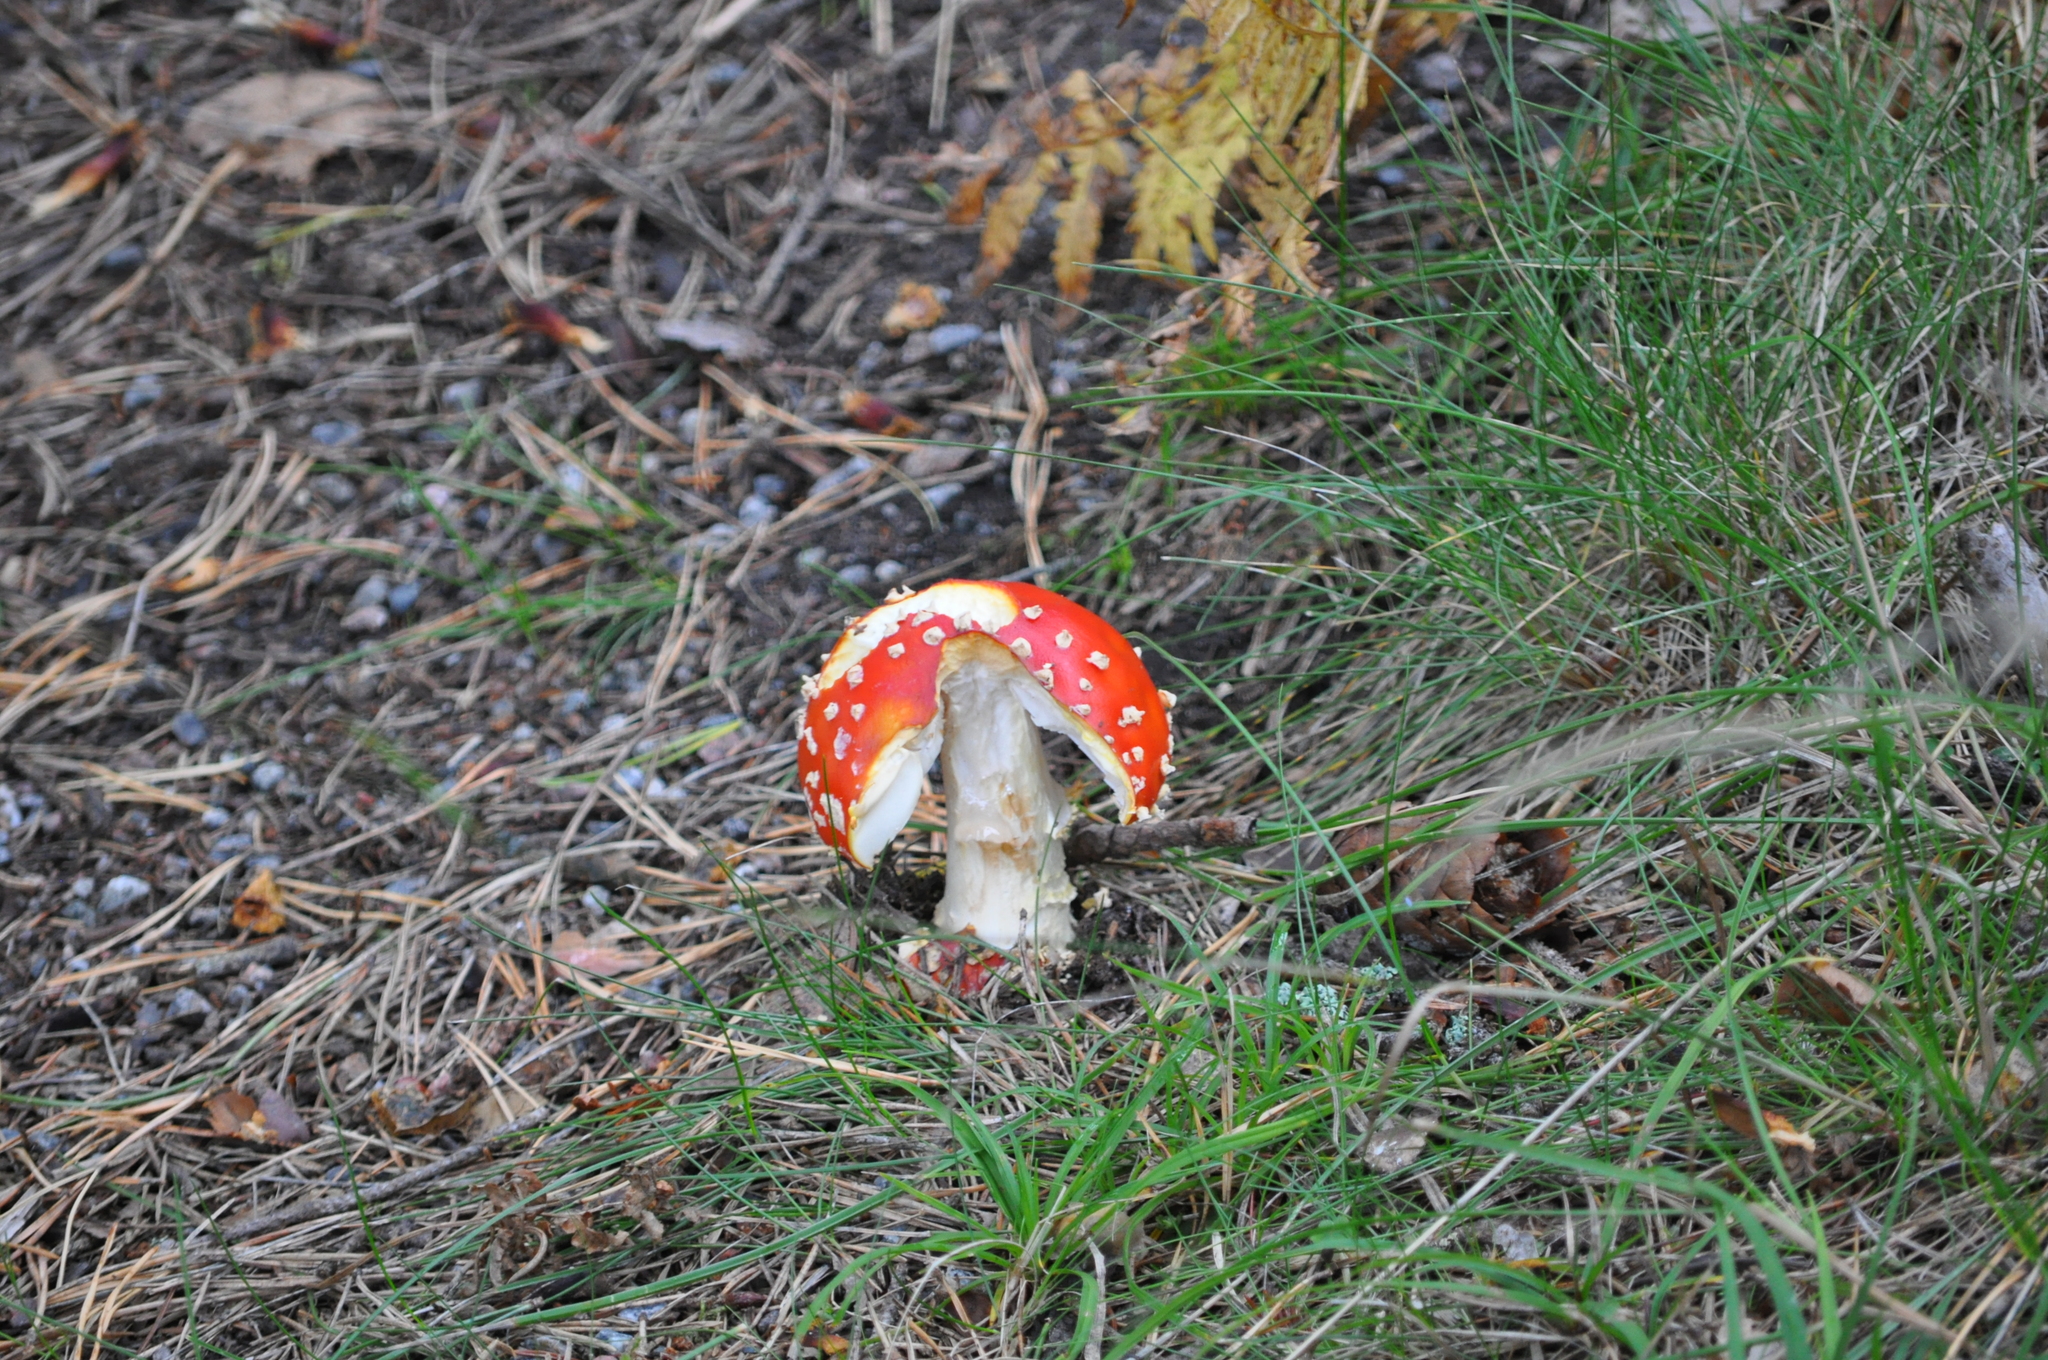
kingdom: Fungi
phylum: Basidiomycota
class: Agaricomycetes
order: Agaricales
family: Amanitaceae
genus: Amanita
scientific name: Amanita muscaria
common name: Fly agaric
